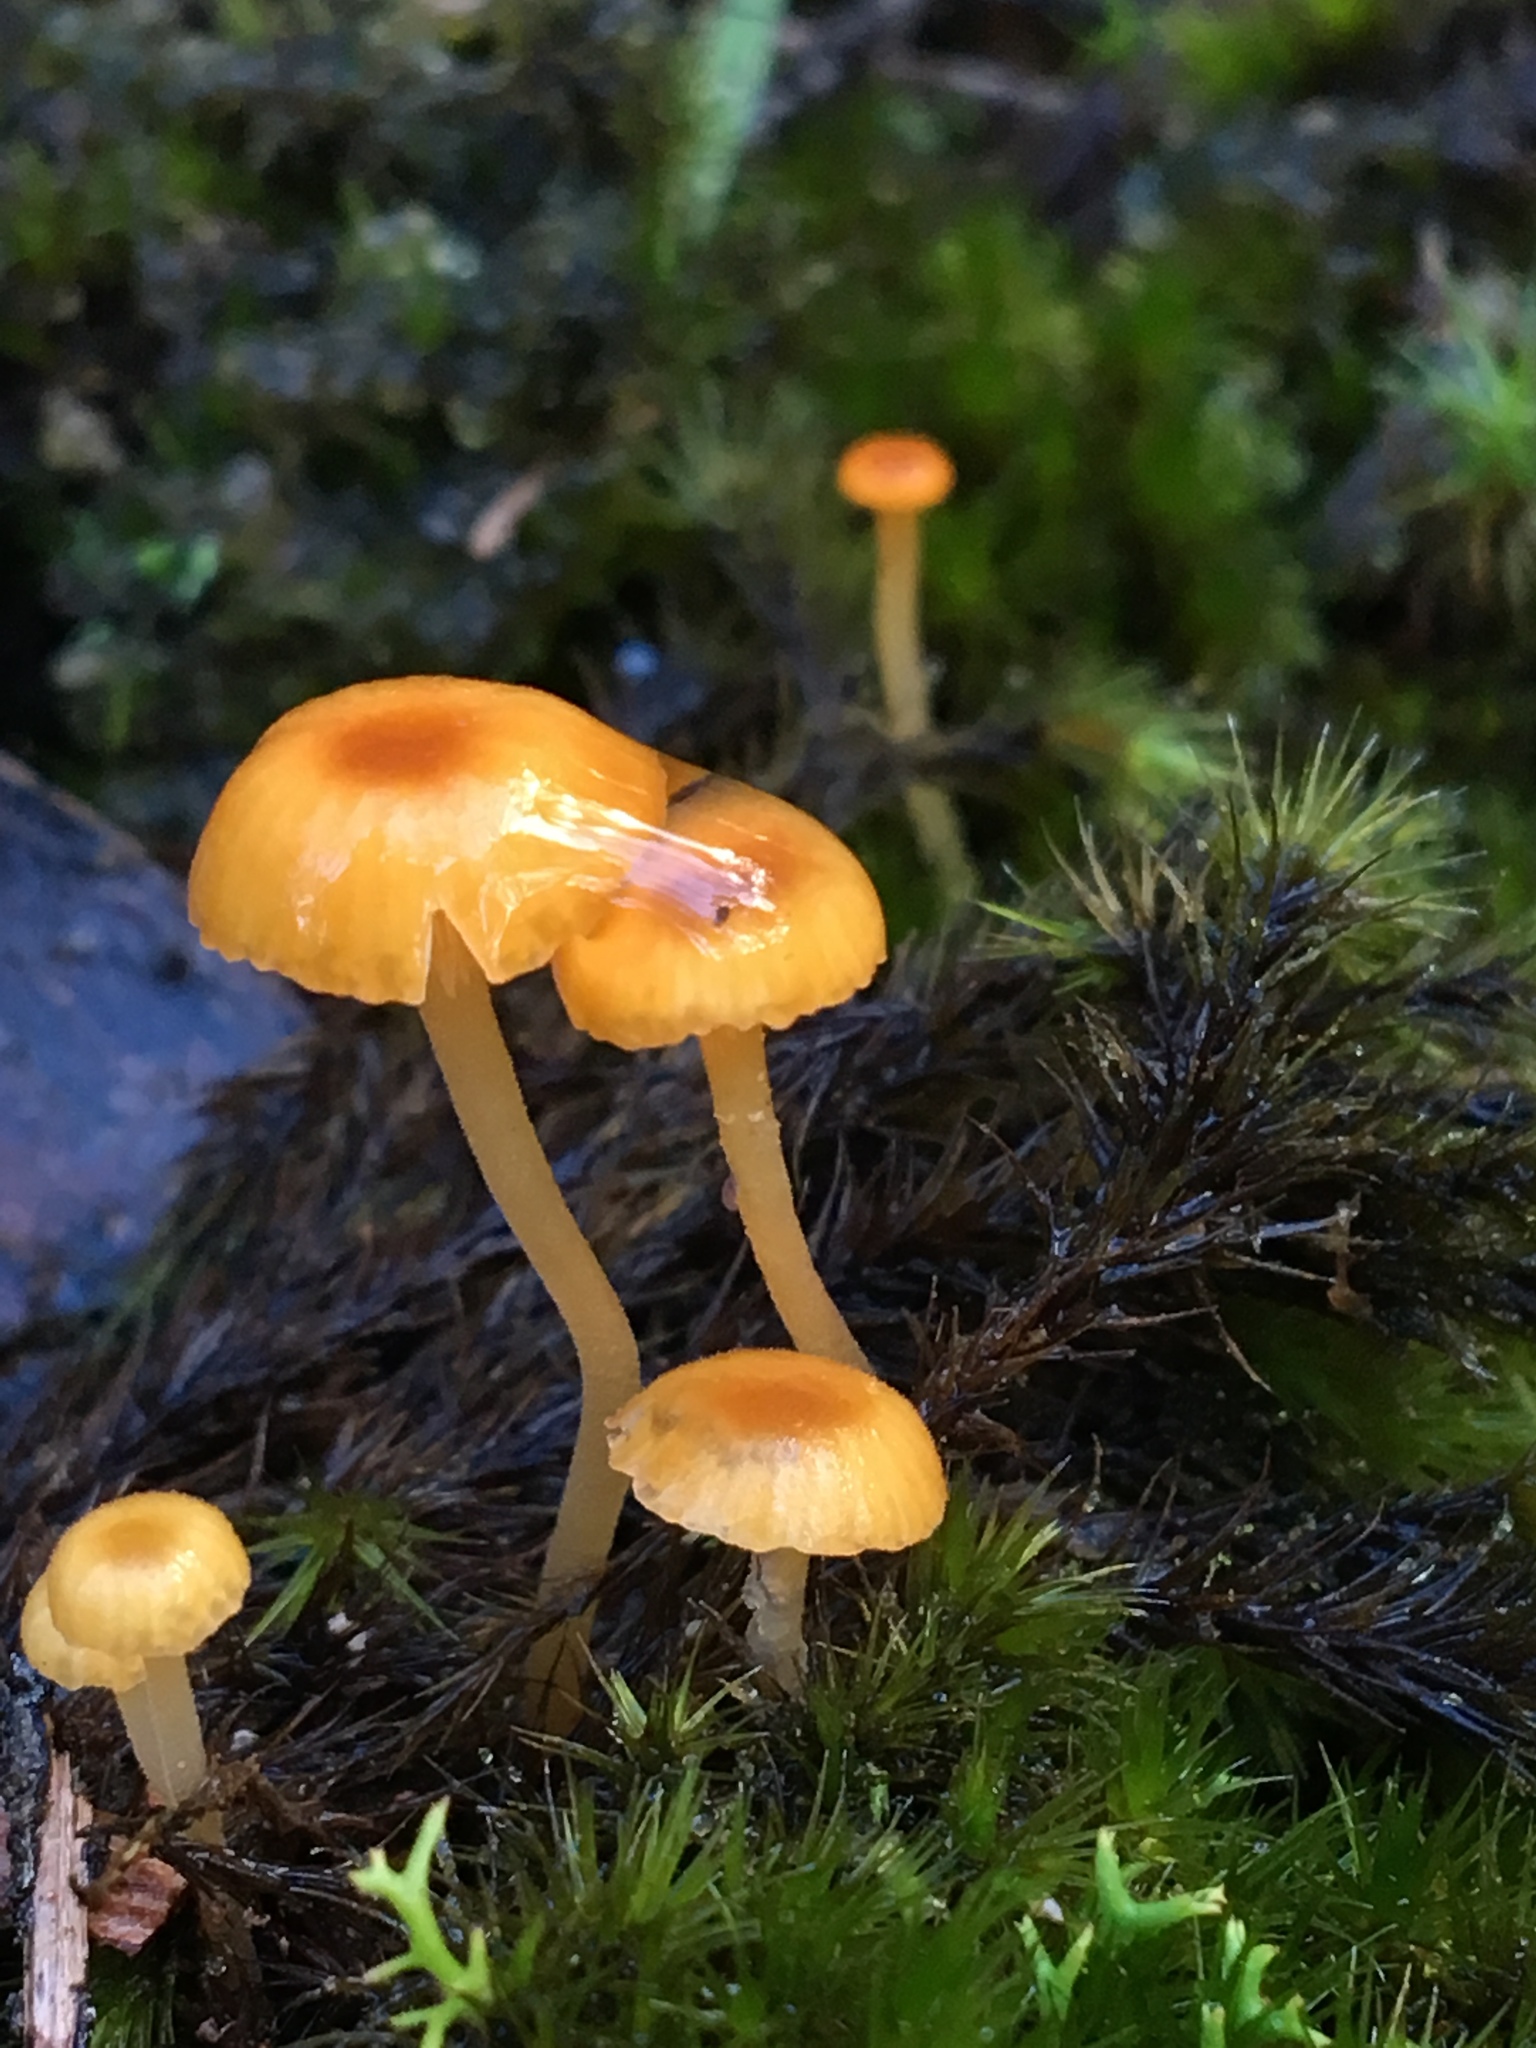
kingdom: Fungi
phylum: Basidiomycota
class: Agaricomycetes
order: Hymenochaetales
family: Rickenellaceae
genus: Rickenella
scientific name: Rickenella fibula
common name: Orange mosscap
